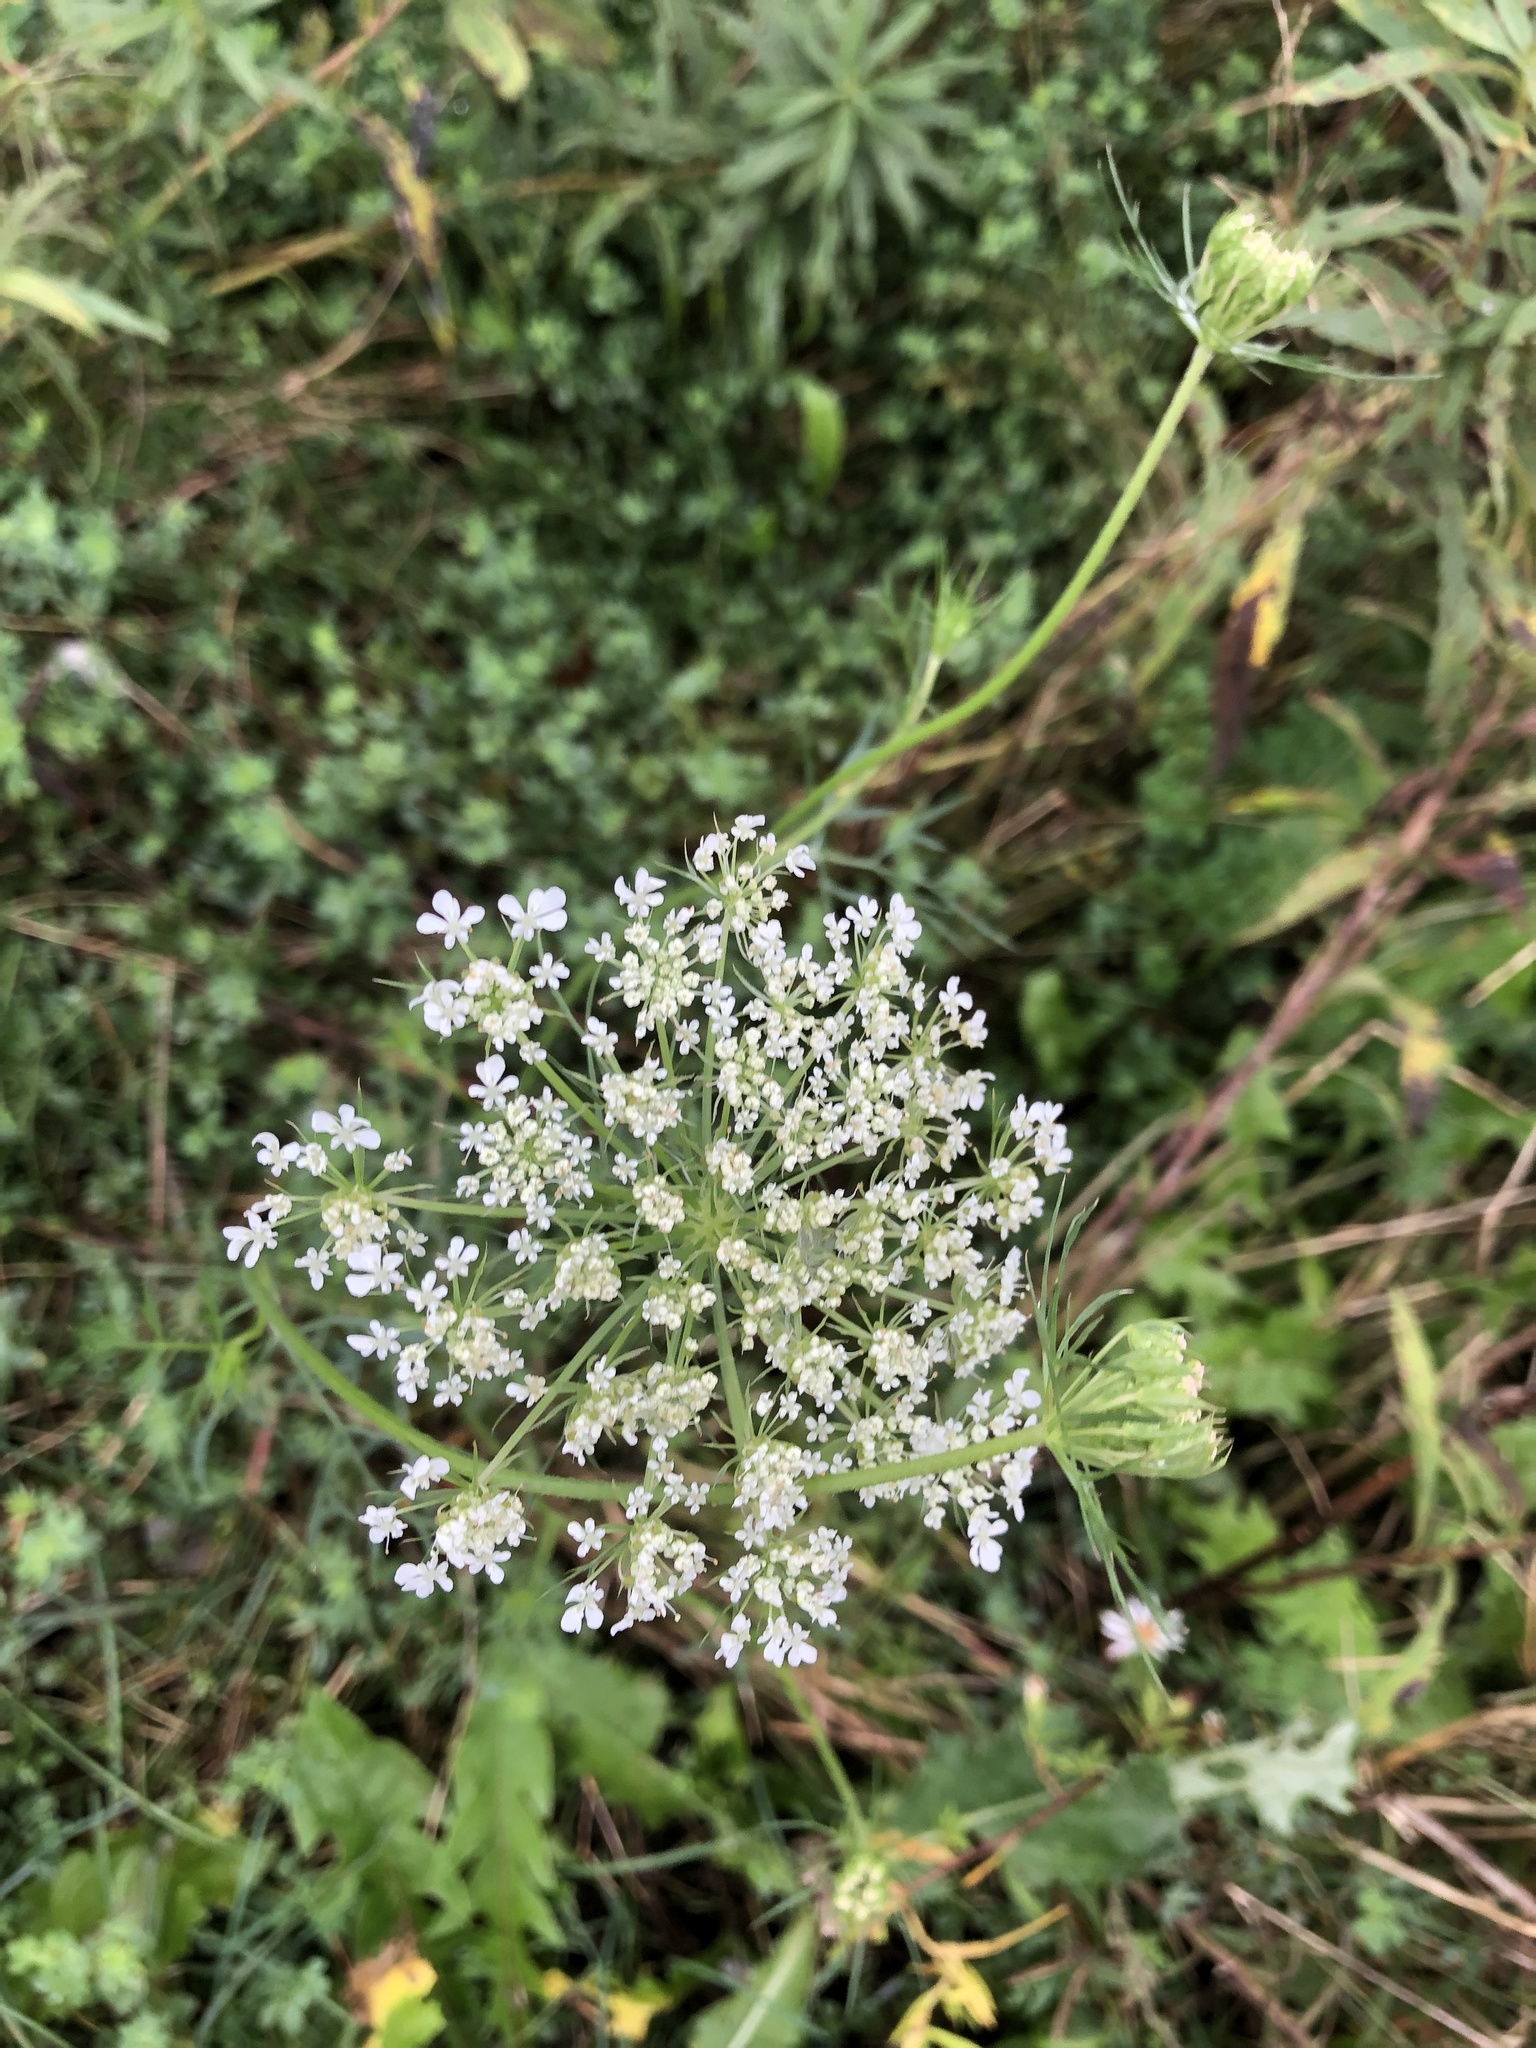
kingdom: Plantae
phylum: Tracheophyta
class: Magnoliopsida
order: Apiales
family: Apiaceae
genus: Daucus
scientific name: Daucus carota
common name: Wild carrot
